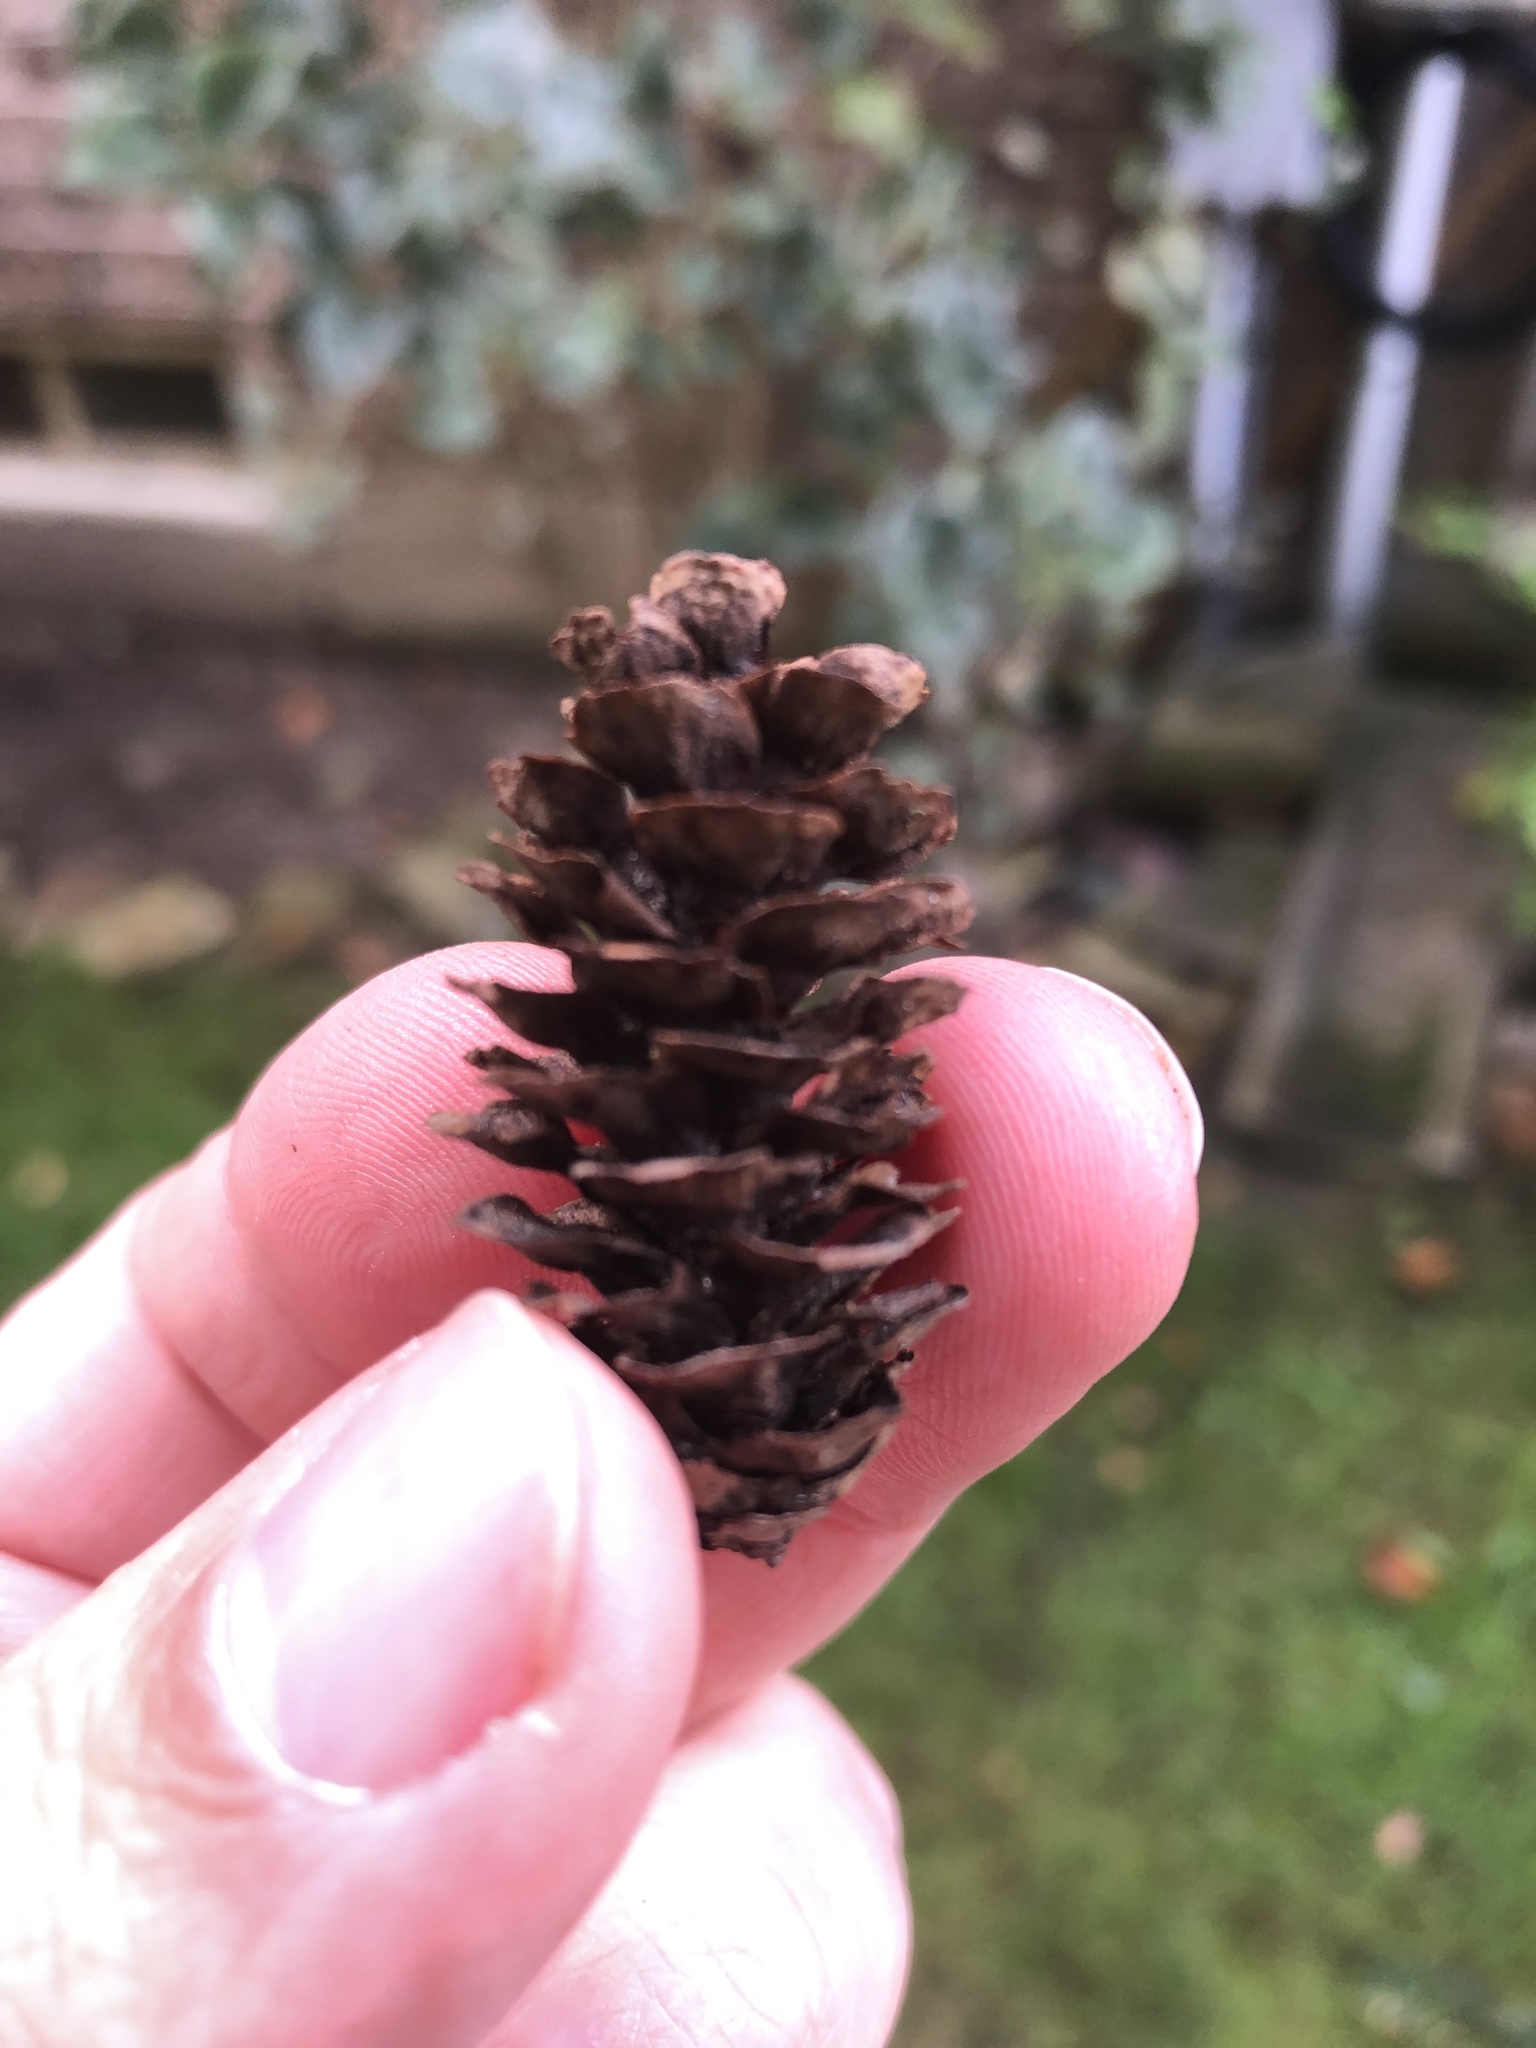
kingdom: Plantae
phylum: Tracheophyta
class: Pinopsida
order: Pinales
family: Pinaceae
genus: Picea
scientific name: Picea glauca
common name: White spruce
